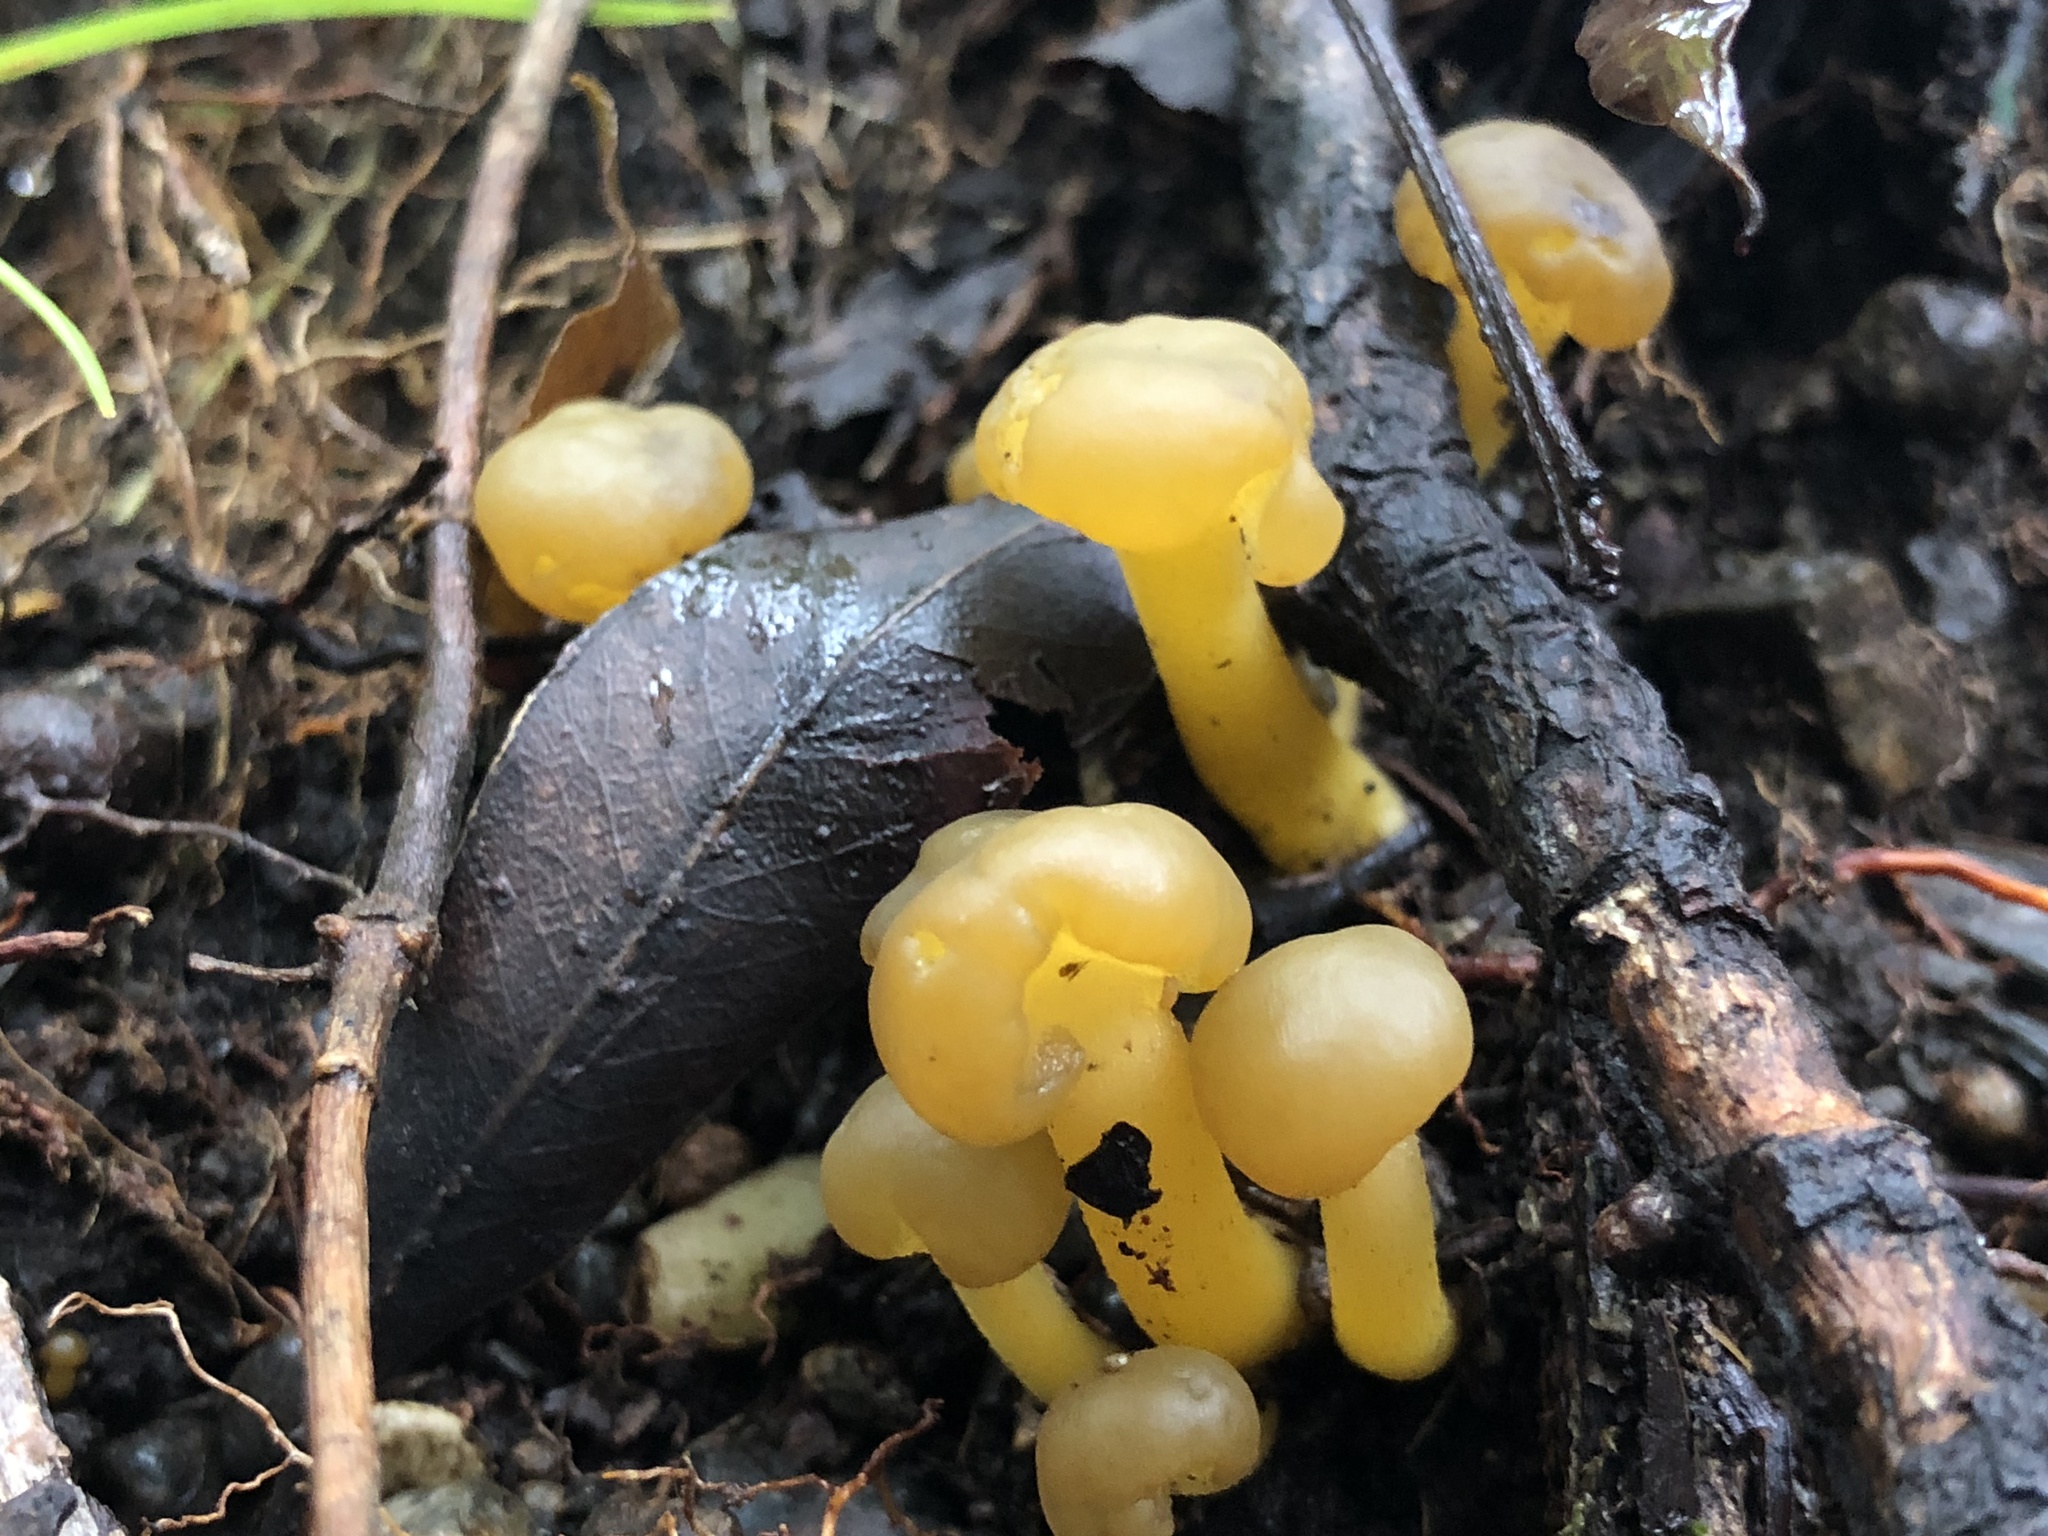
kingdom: Fungi
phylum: Ascomycota
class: Leotiomycetes
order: Leotiales
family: Leotiaceae
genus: Leotia
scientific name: Leotia lubrica
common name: Jellybaby
